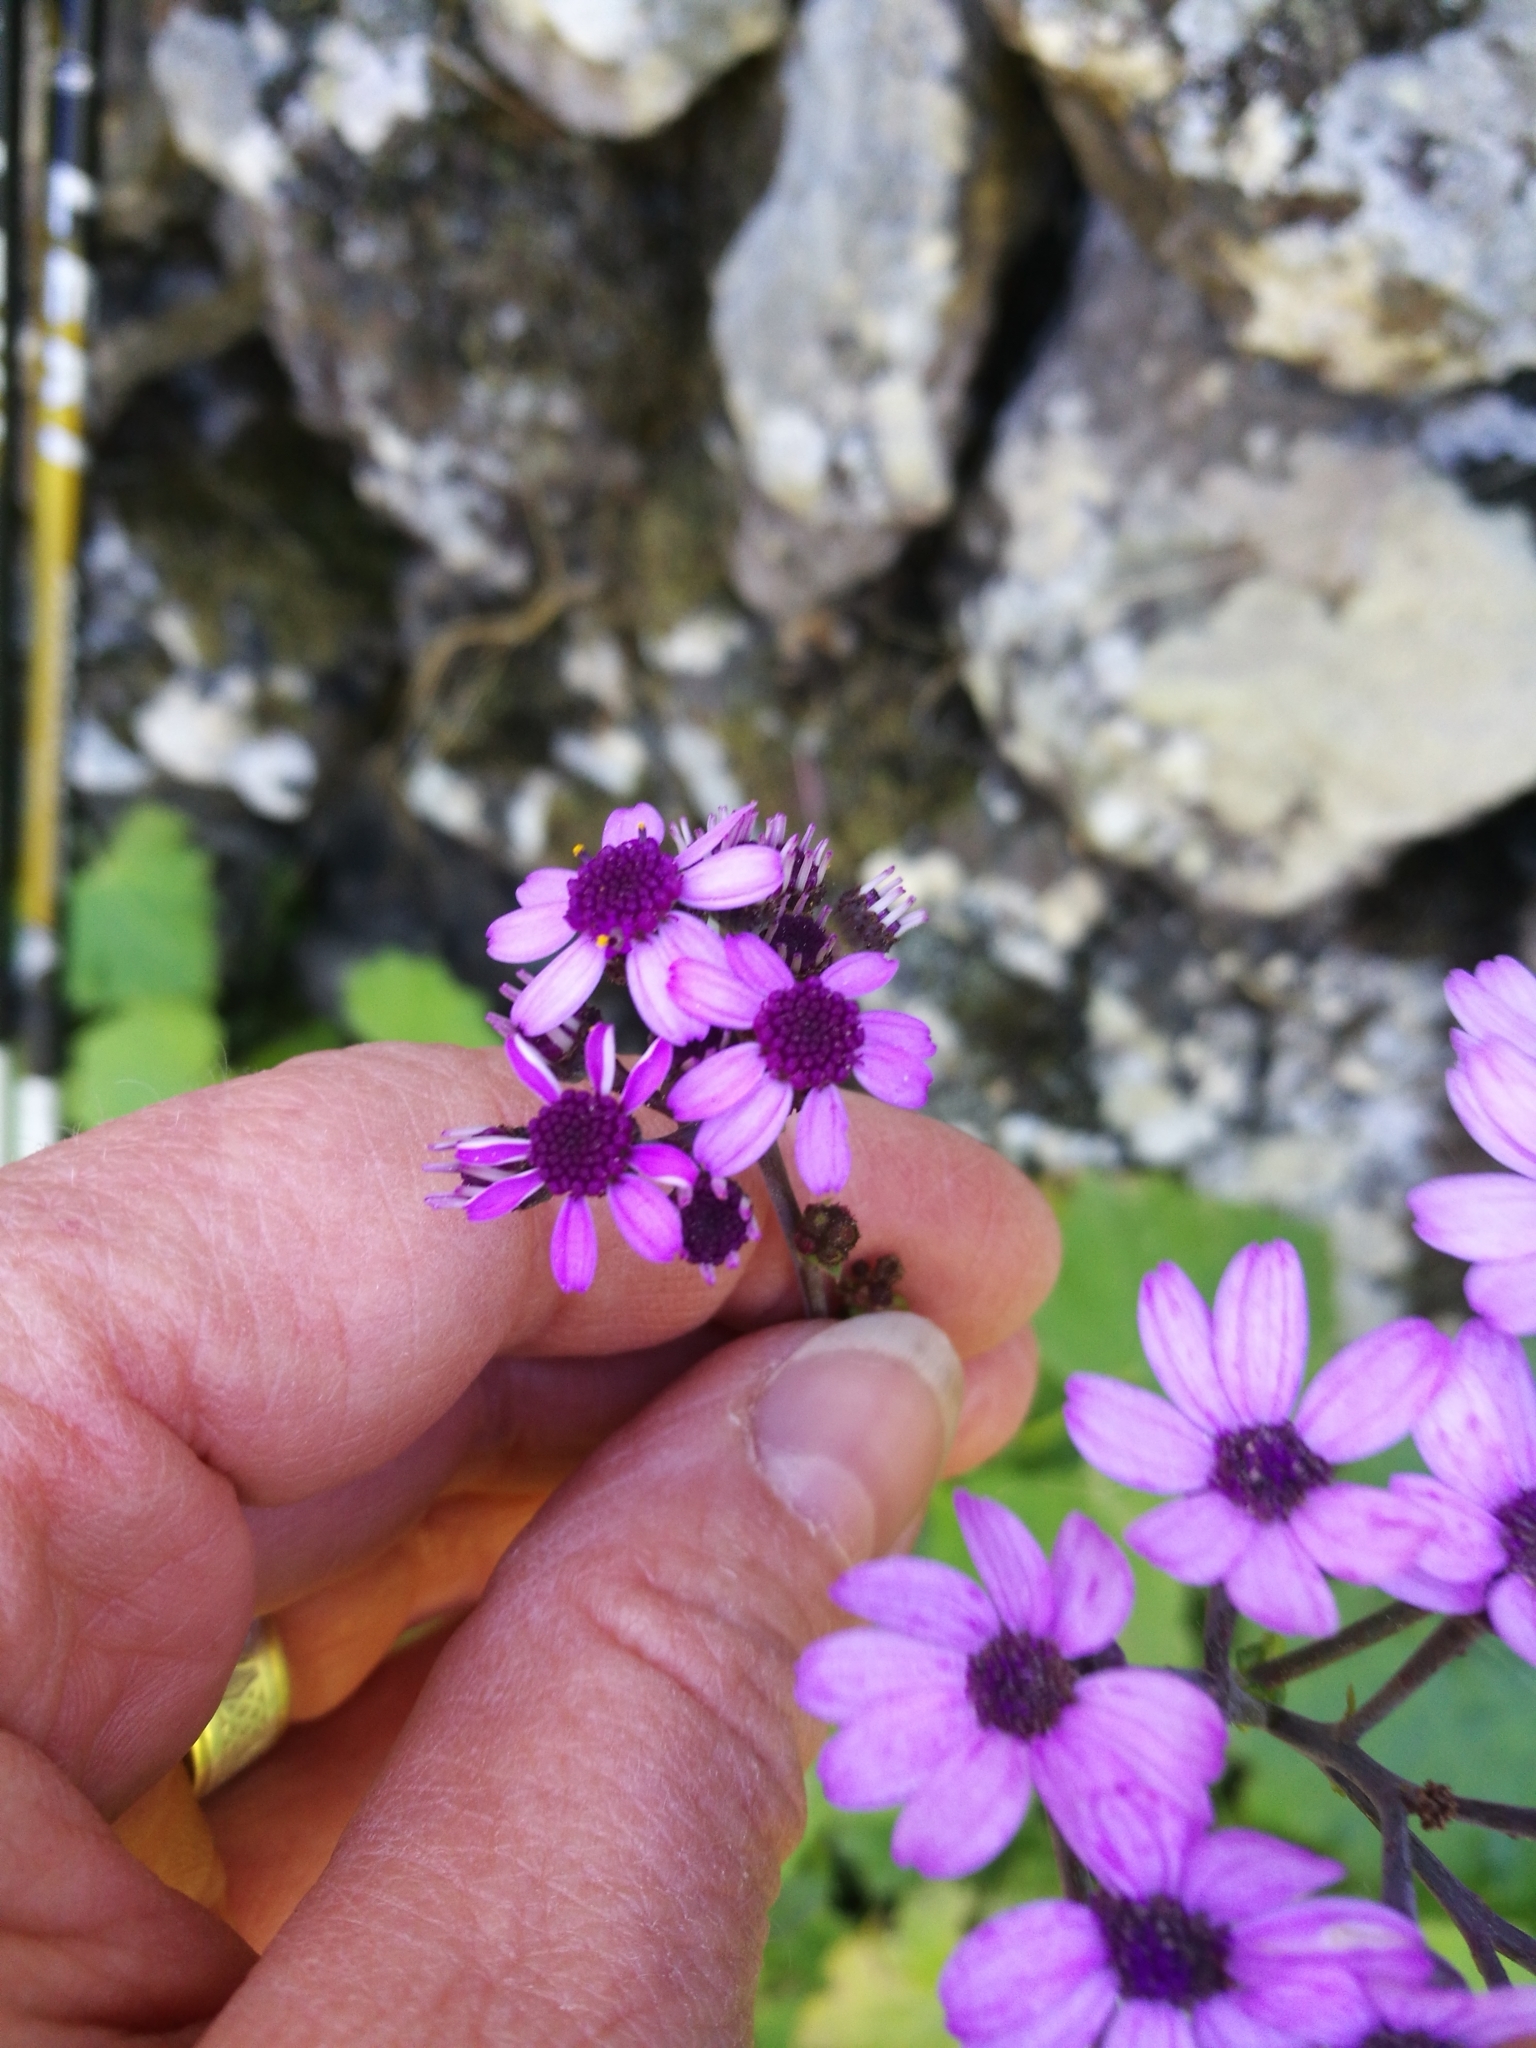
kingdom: Plantae
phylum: Tracheophyta
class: Magnoliopsida
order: Asterales
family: Asteraceae
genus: Pericallis
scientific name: Pericallis papyracea
